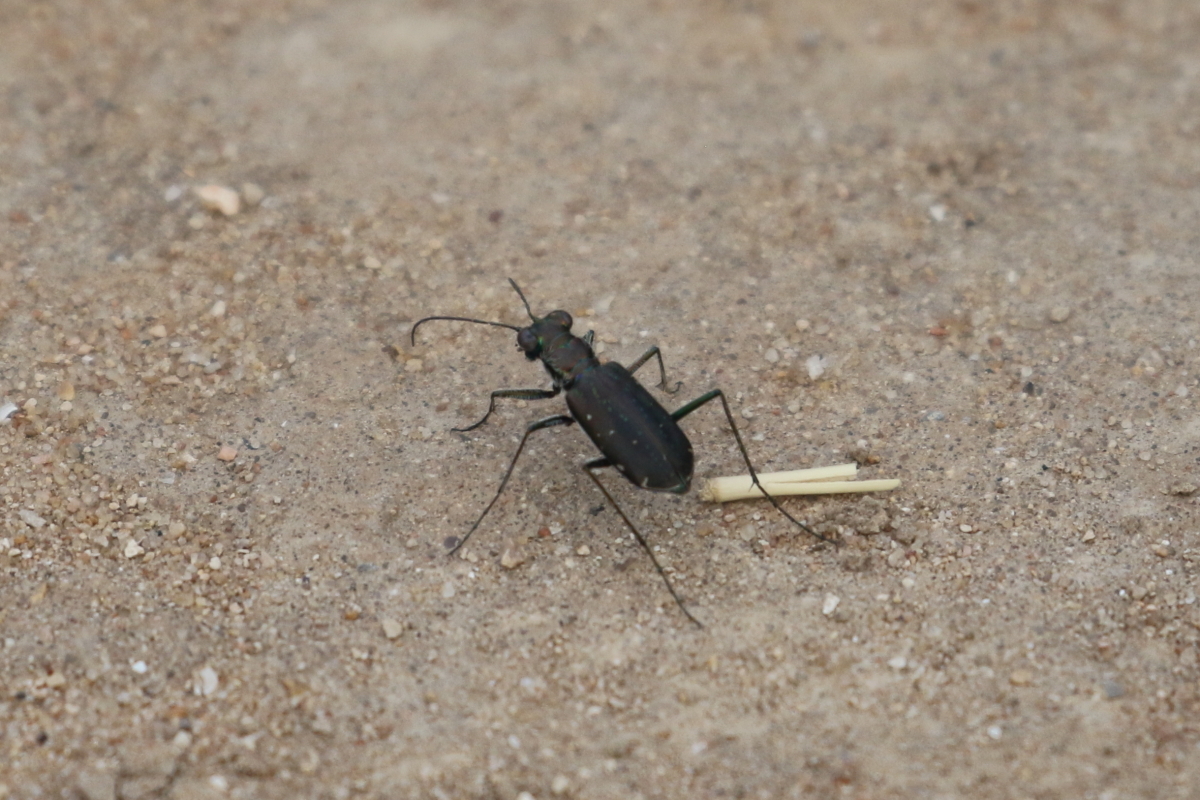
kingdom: Animalia
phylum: Arthropoda
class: Insecta
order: Coleoptera
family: Carabidae
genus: Cicindela
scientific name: Cicindela punctulata
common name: Punctured tiger beetle
